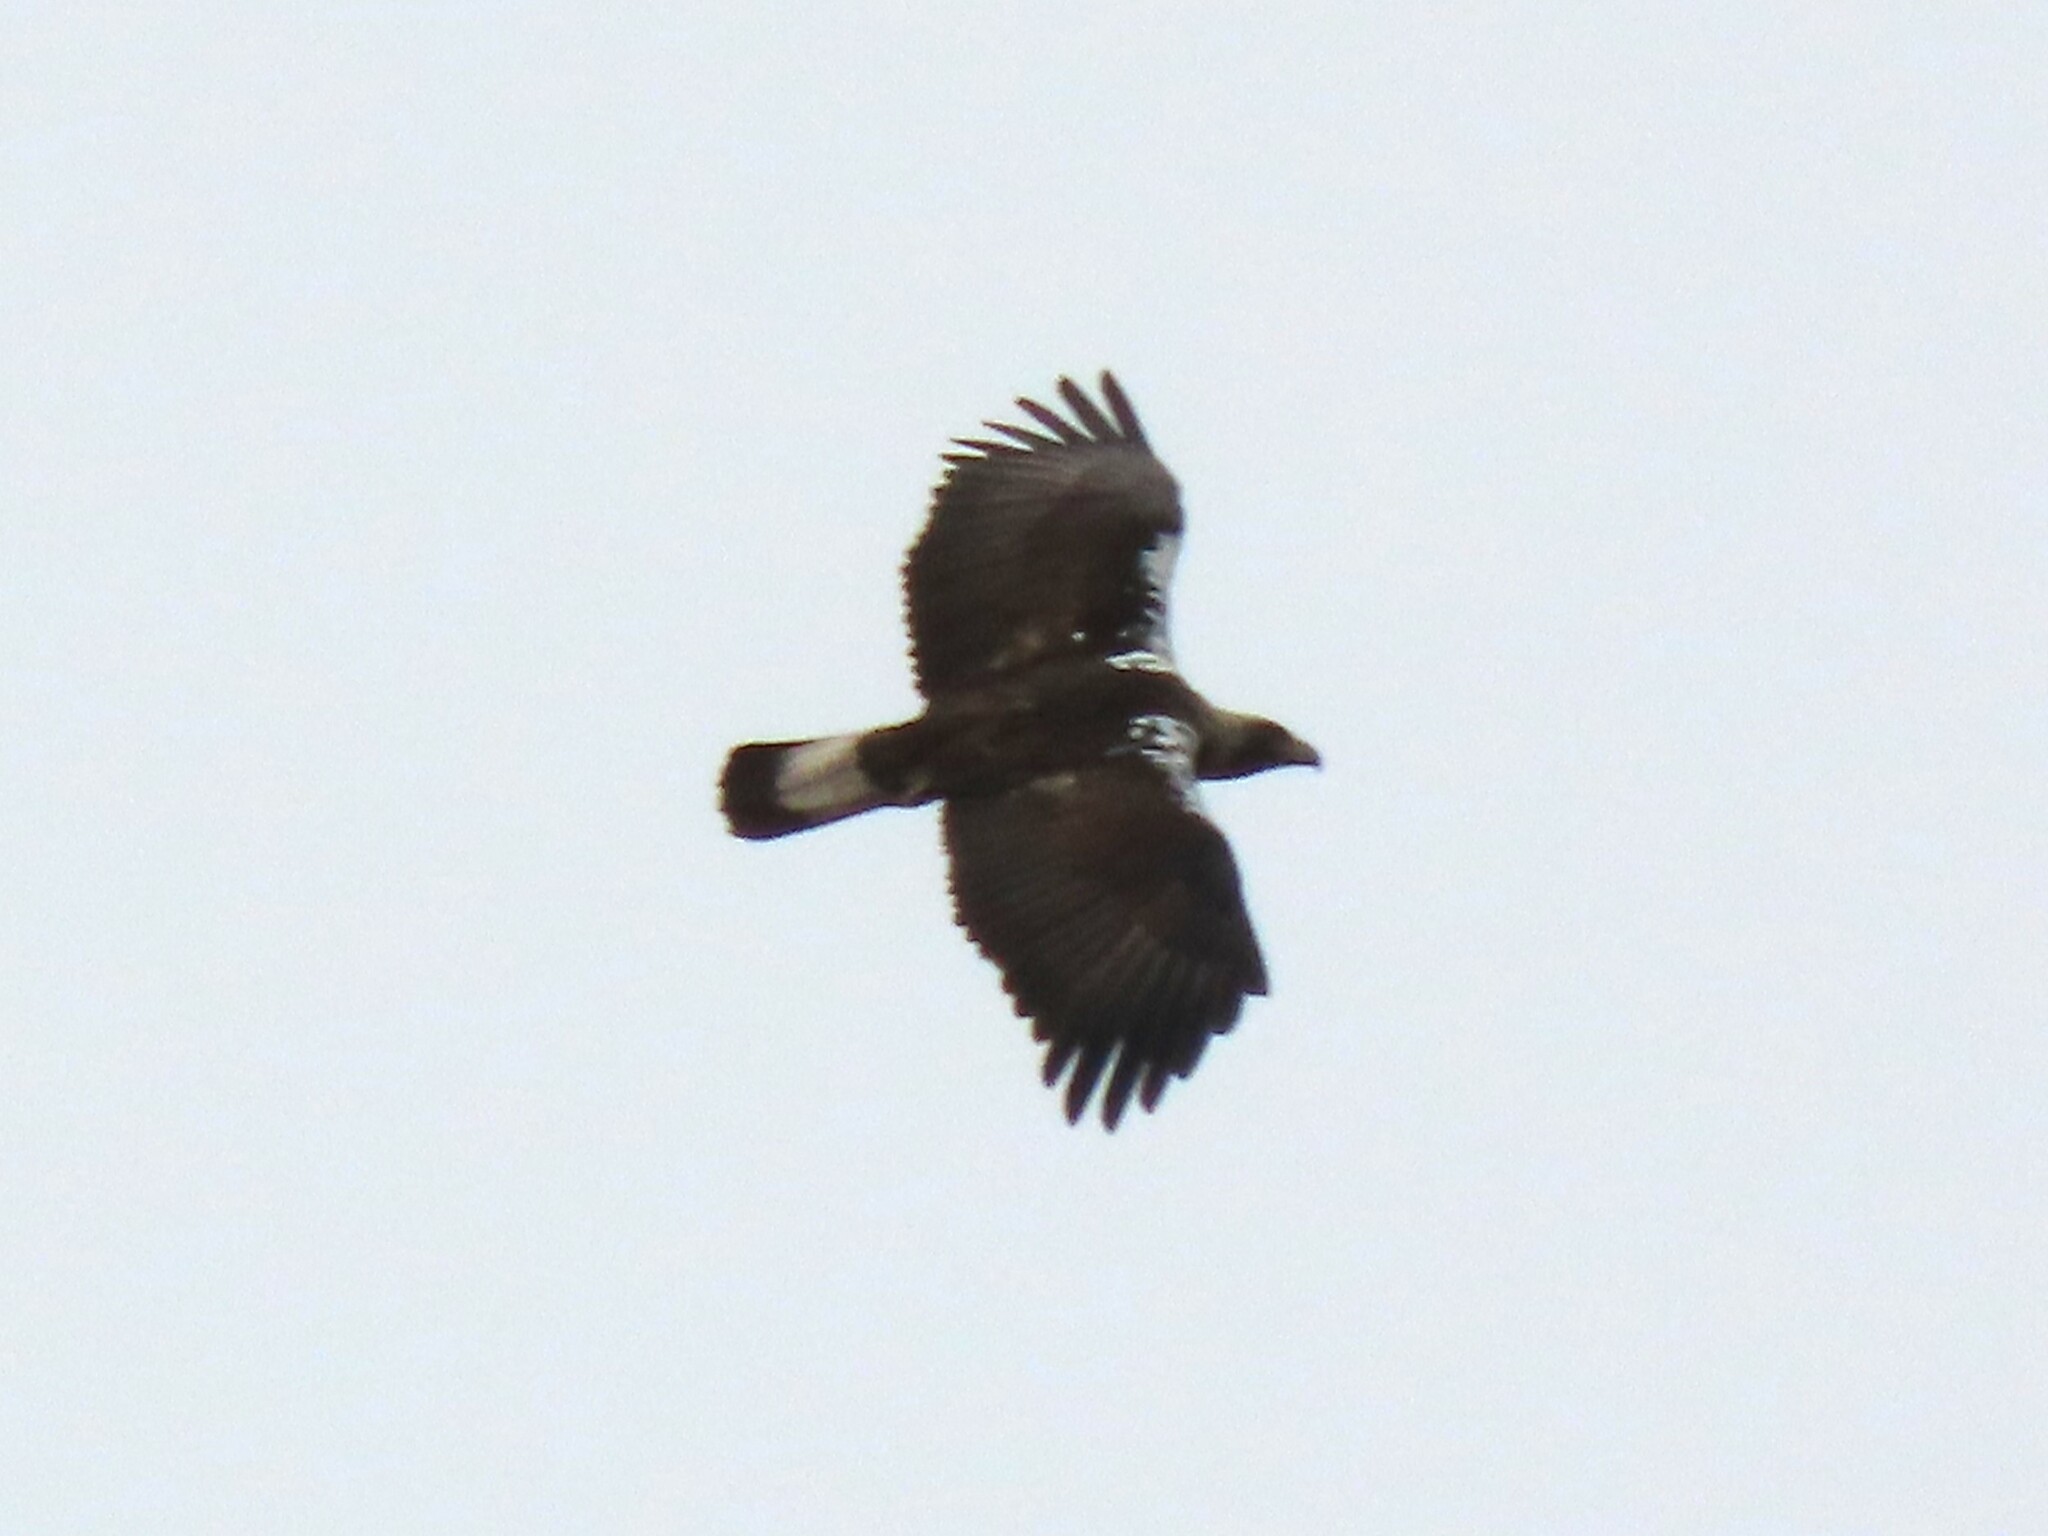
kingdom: Animalia
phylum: Chordata
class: Aves
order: Accipitriformes
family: Accipitridae
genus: Aquila
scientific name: Aquila adalberti
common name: Spanish imperial eagle
